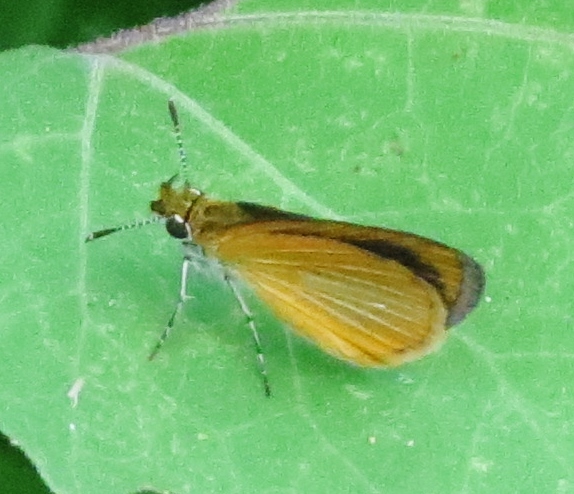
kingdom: Animalia
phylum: Arthropoda
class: Insecta
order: Lepidoptera
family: Hesperiidae
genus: Ancyloxypha
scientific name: Ancyloxypha numitor
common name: Least skipper
